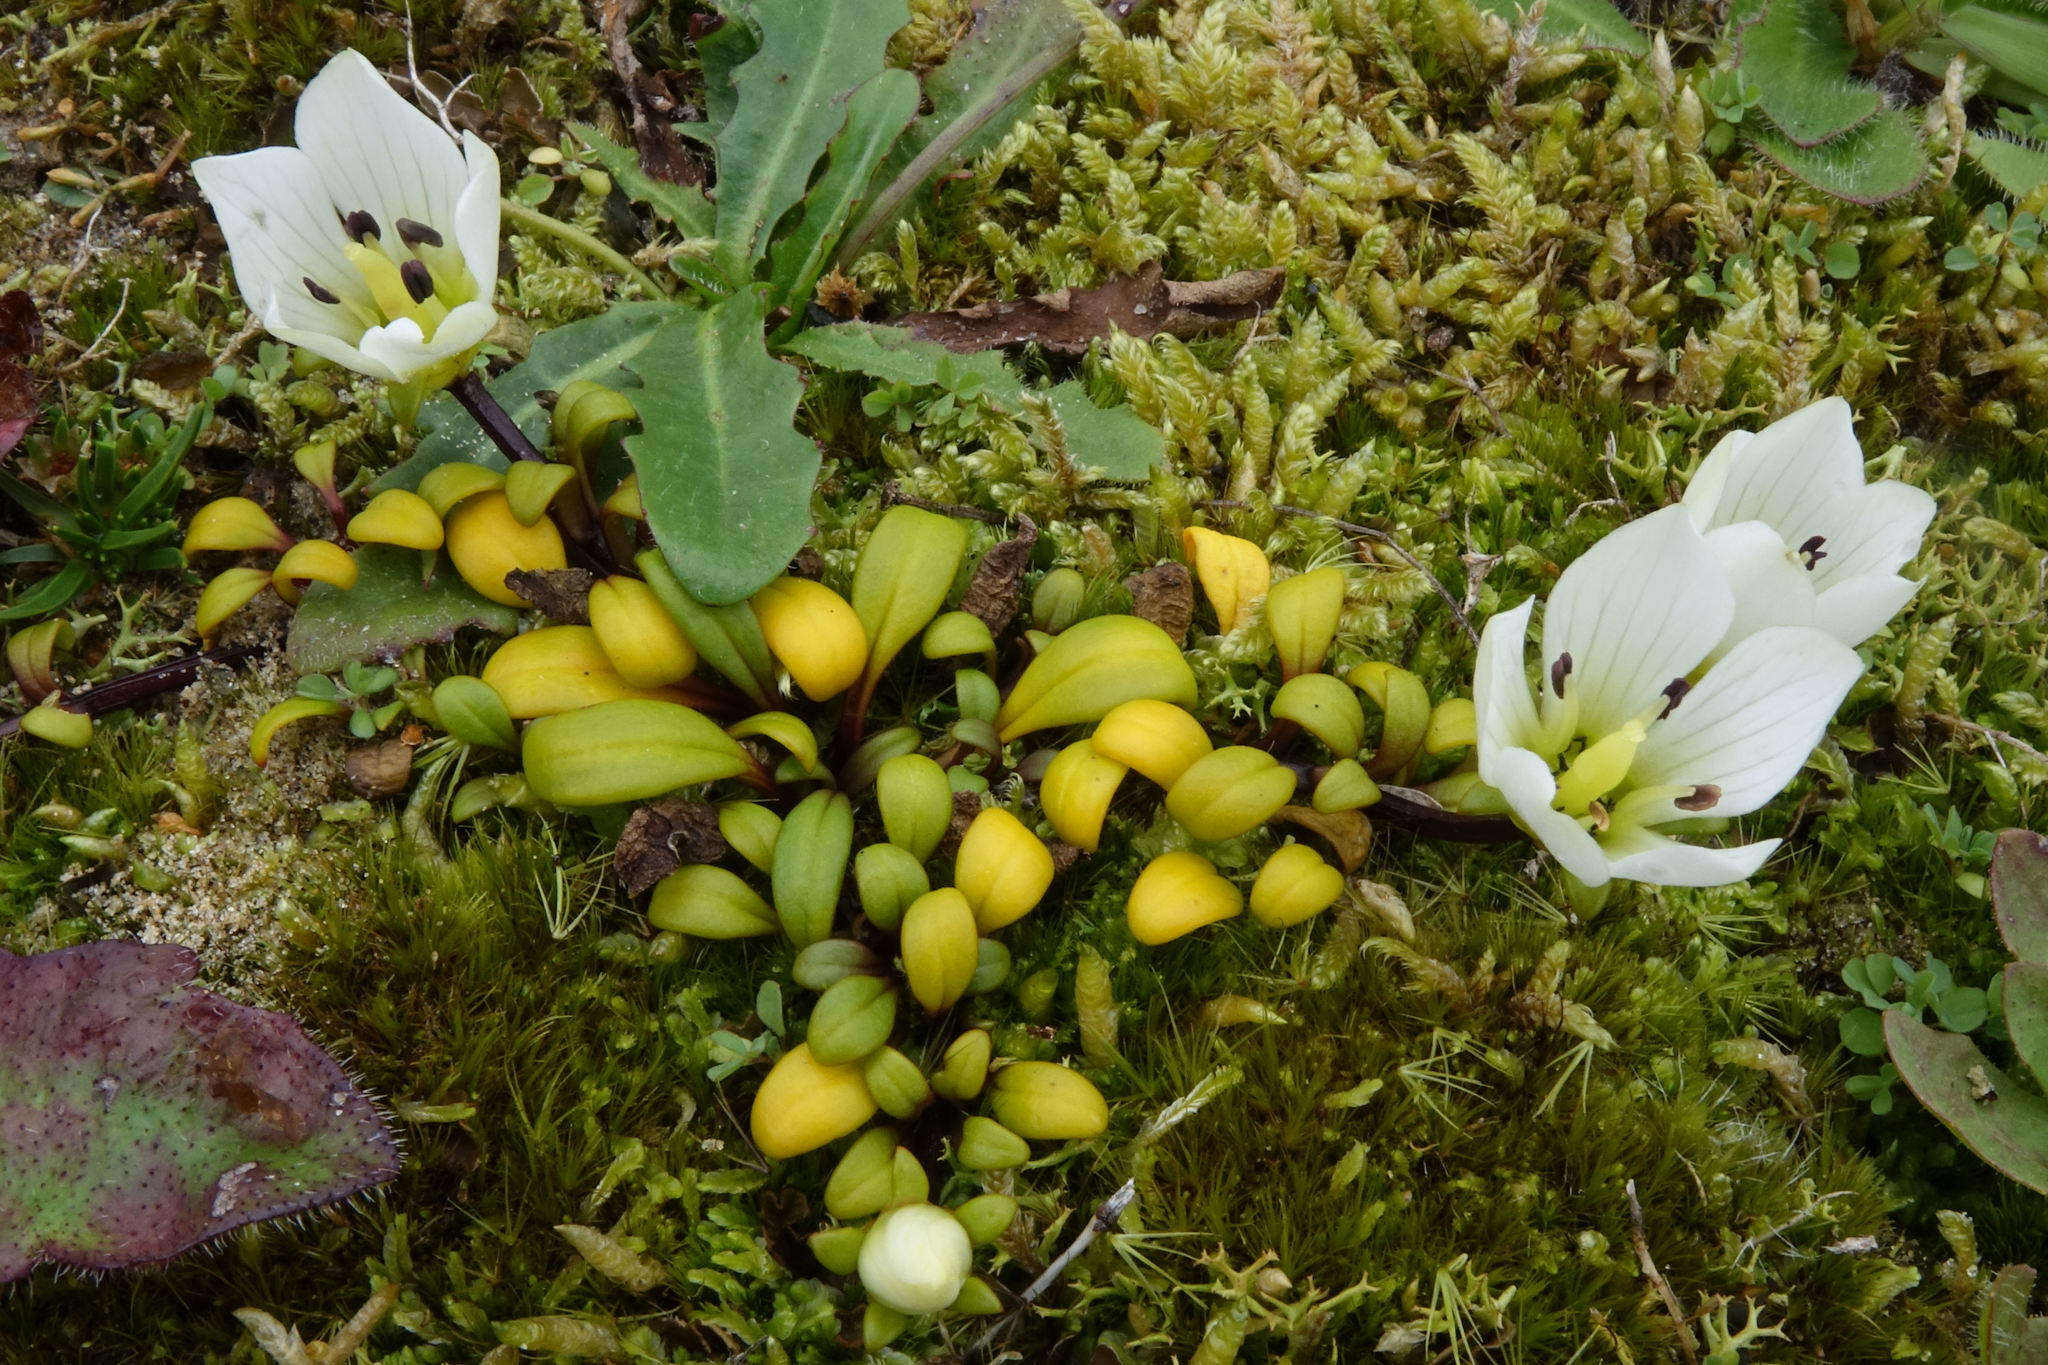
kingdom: Plantae
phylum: Tracheophyta
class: Magnoliopsida
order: Gentianales
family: Gentianaceae
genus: Gentianella
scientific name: Gentianella saxosa
